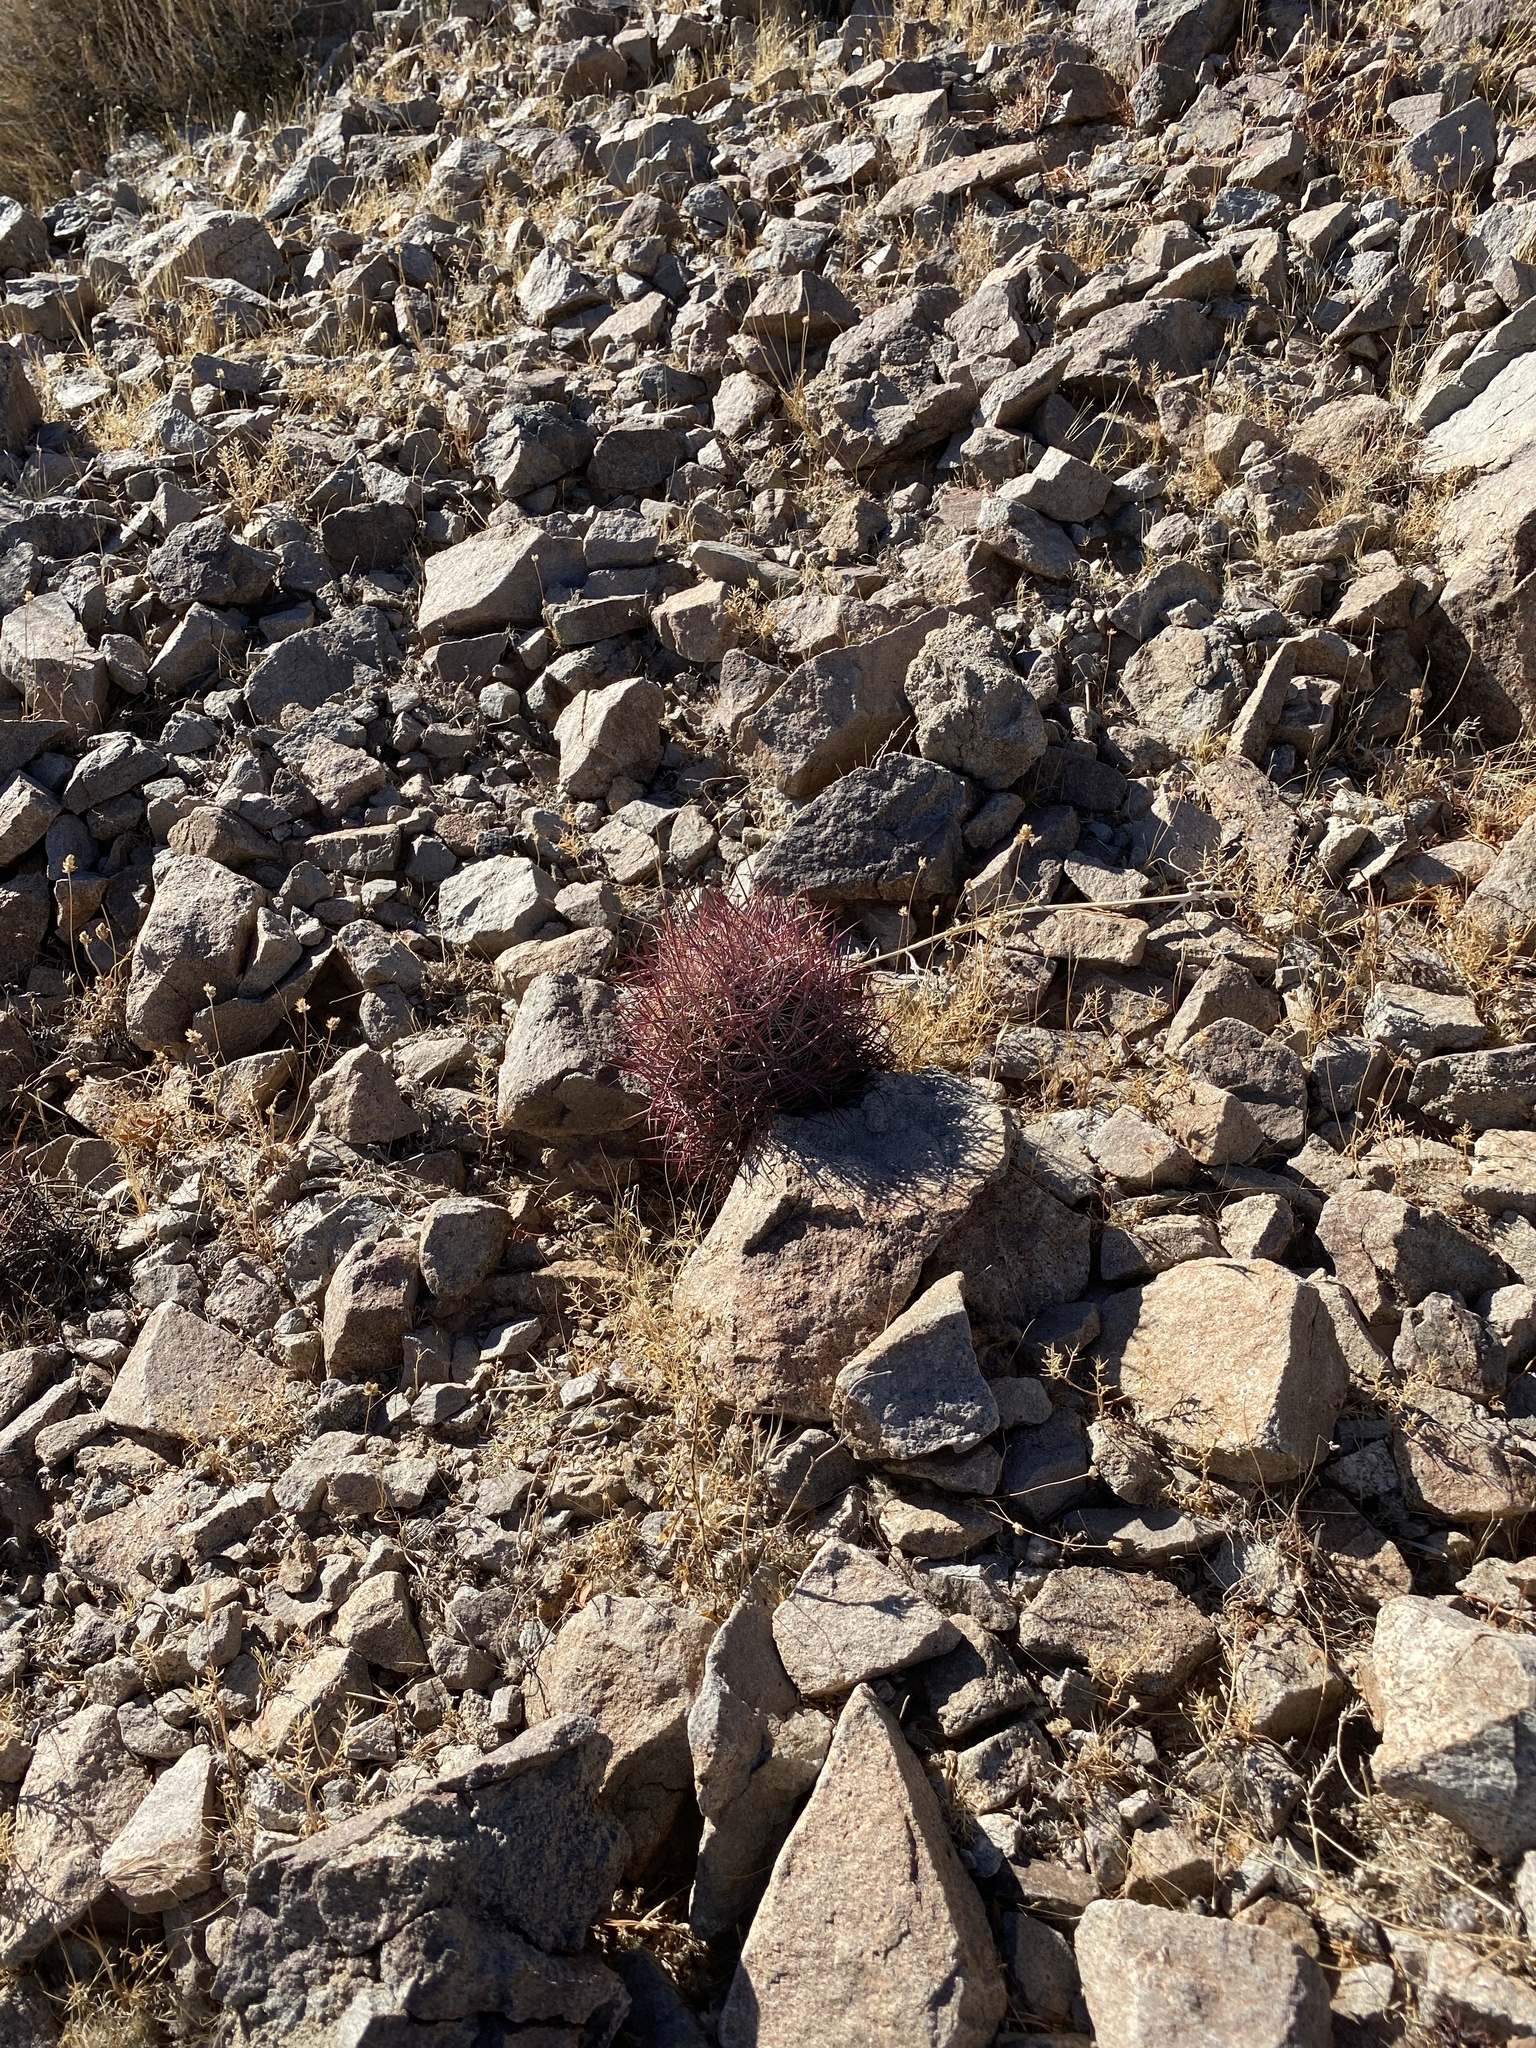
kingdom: Plantae
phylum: Tracheophyta
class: Magnoliopsida
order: Caryophyllales
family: Cactaceae
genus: Sclerocactus
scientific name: Sclerocactus johnsonii
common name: Eight-spine fishhook cactus
